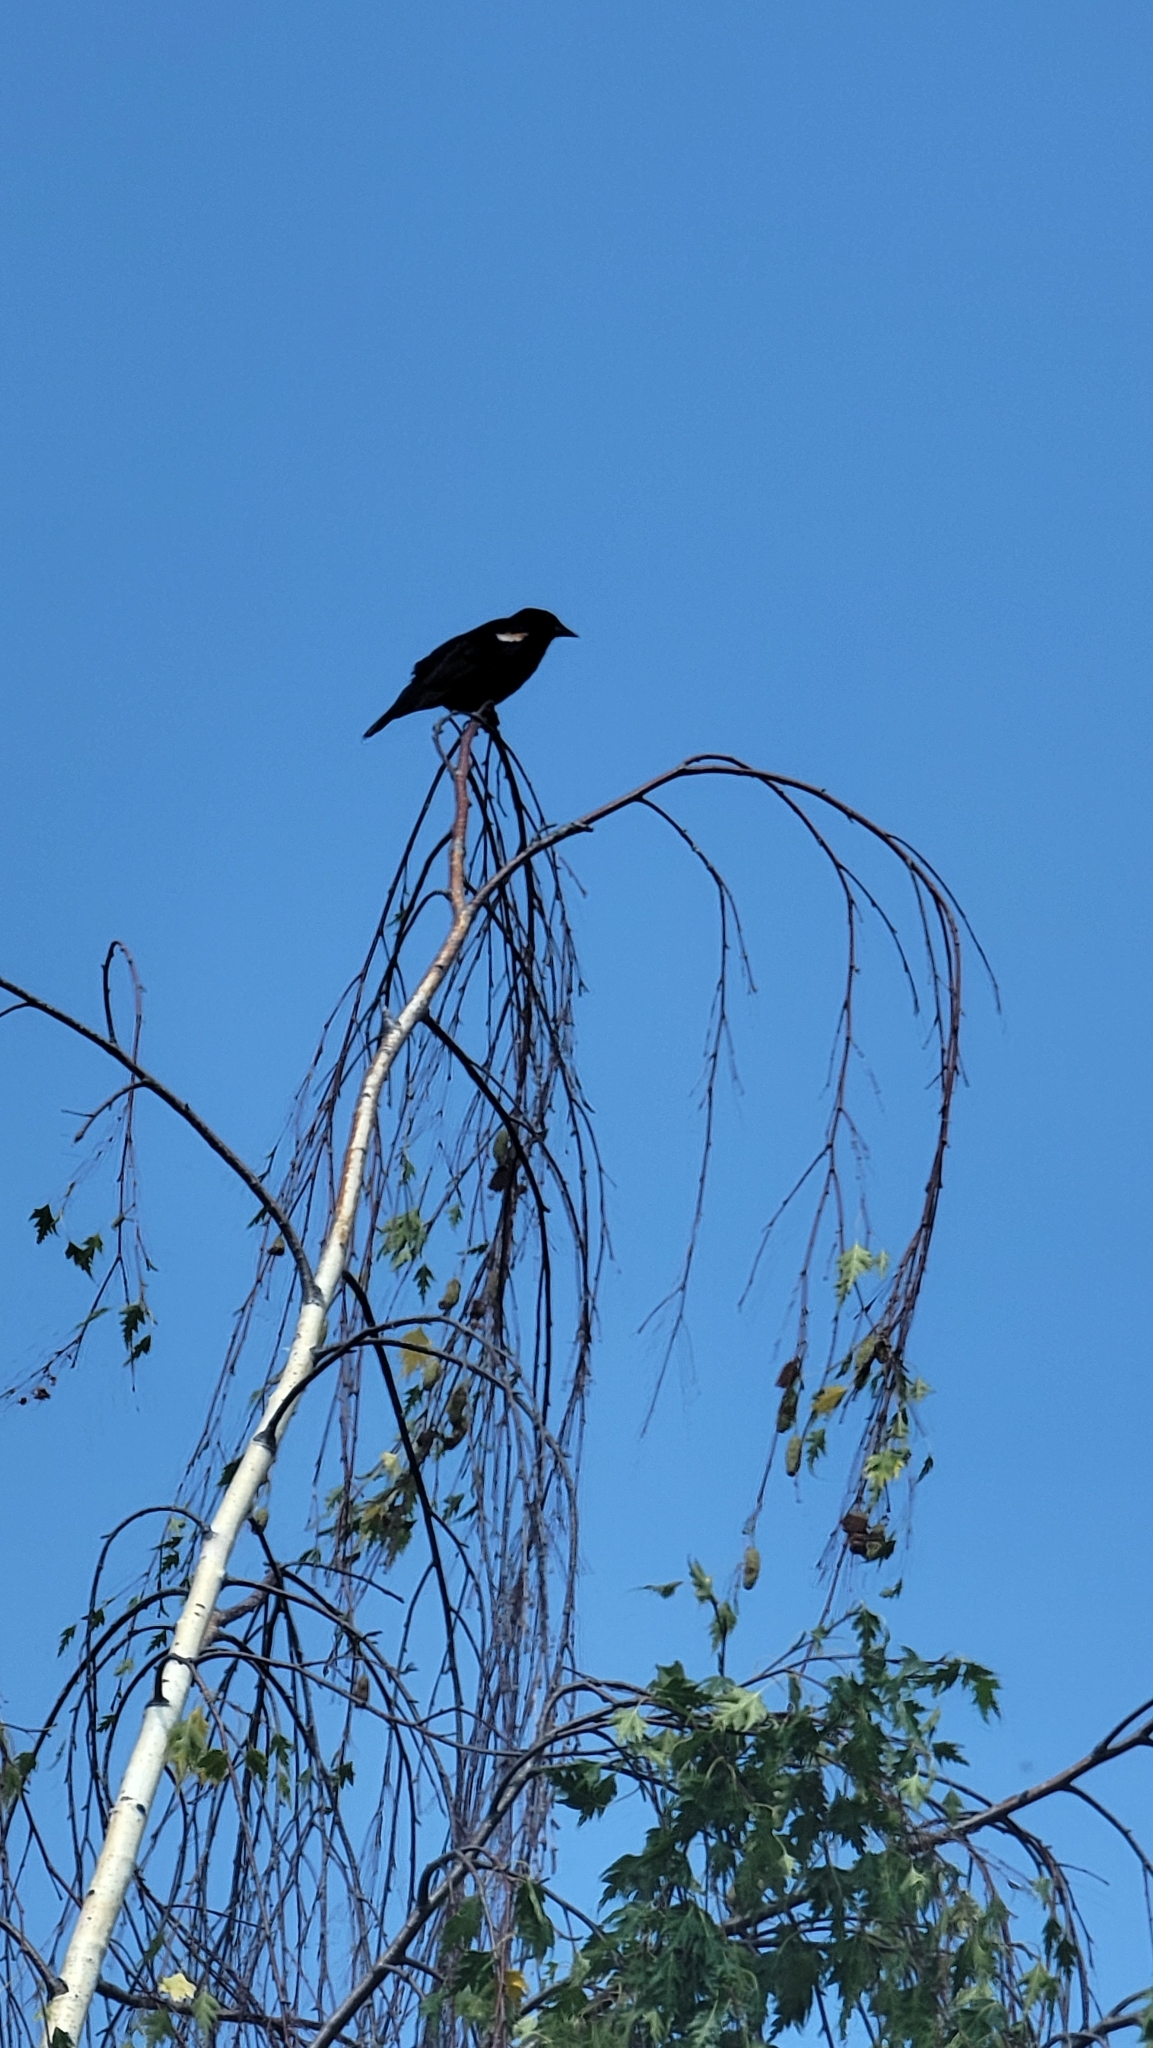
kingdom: Animalia
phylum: Chordata
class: Aves
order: Passeriformes
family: Icteridae
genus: Agelaius
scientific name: Agelaius phoeniceus
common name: Red-winged blackbird
